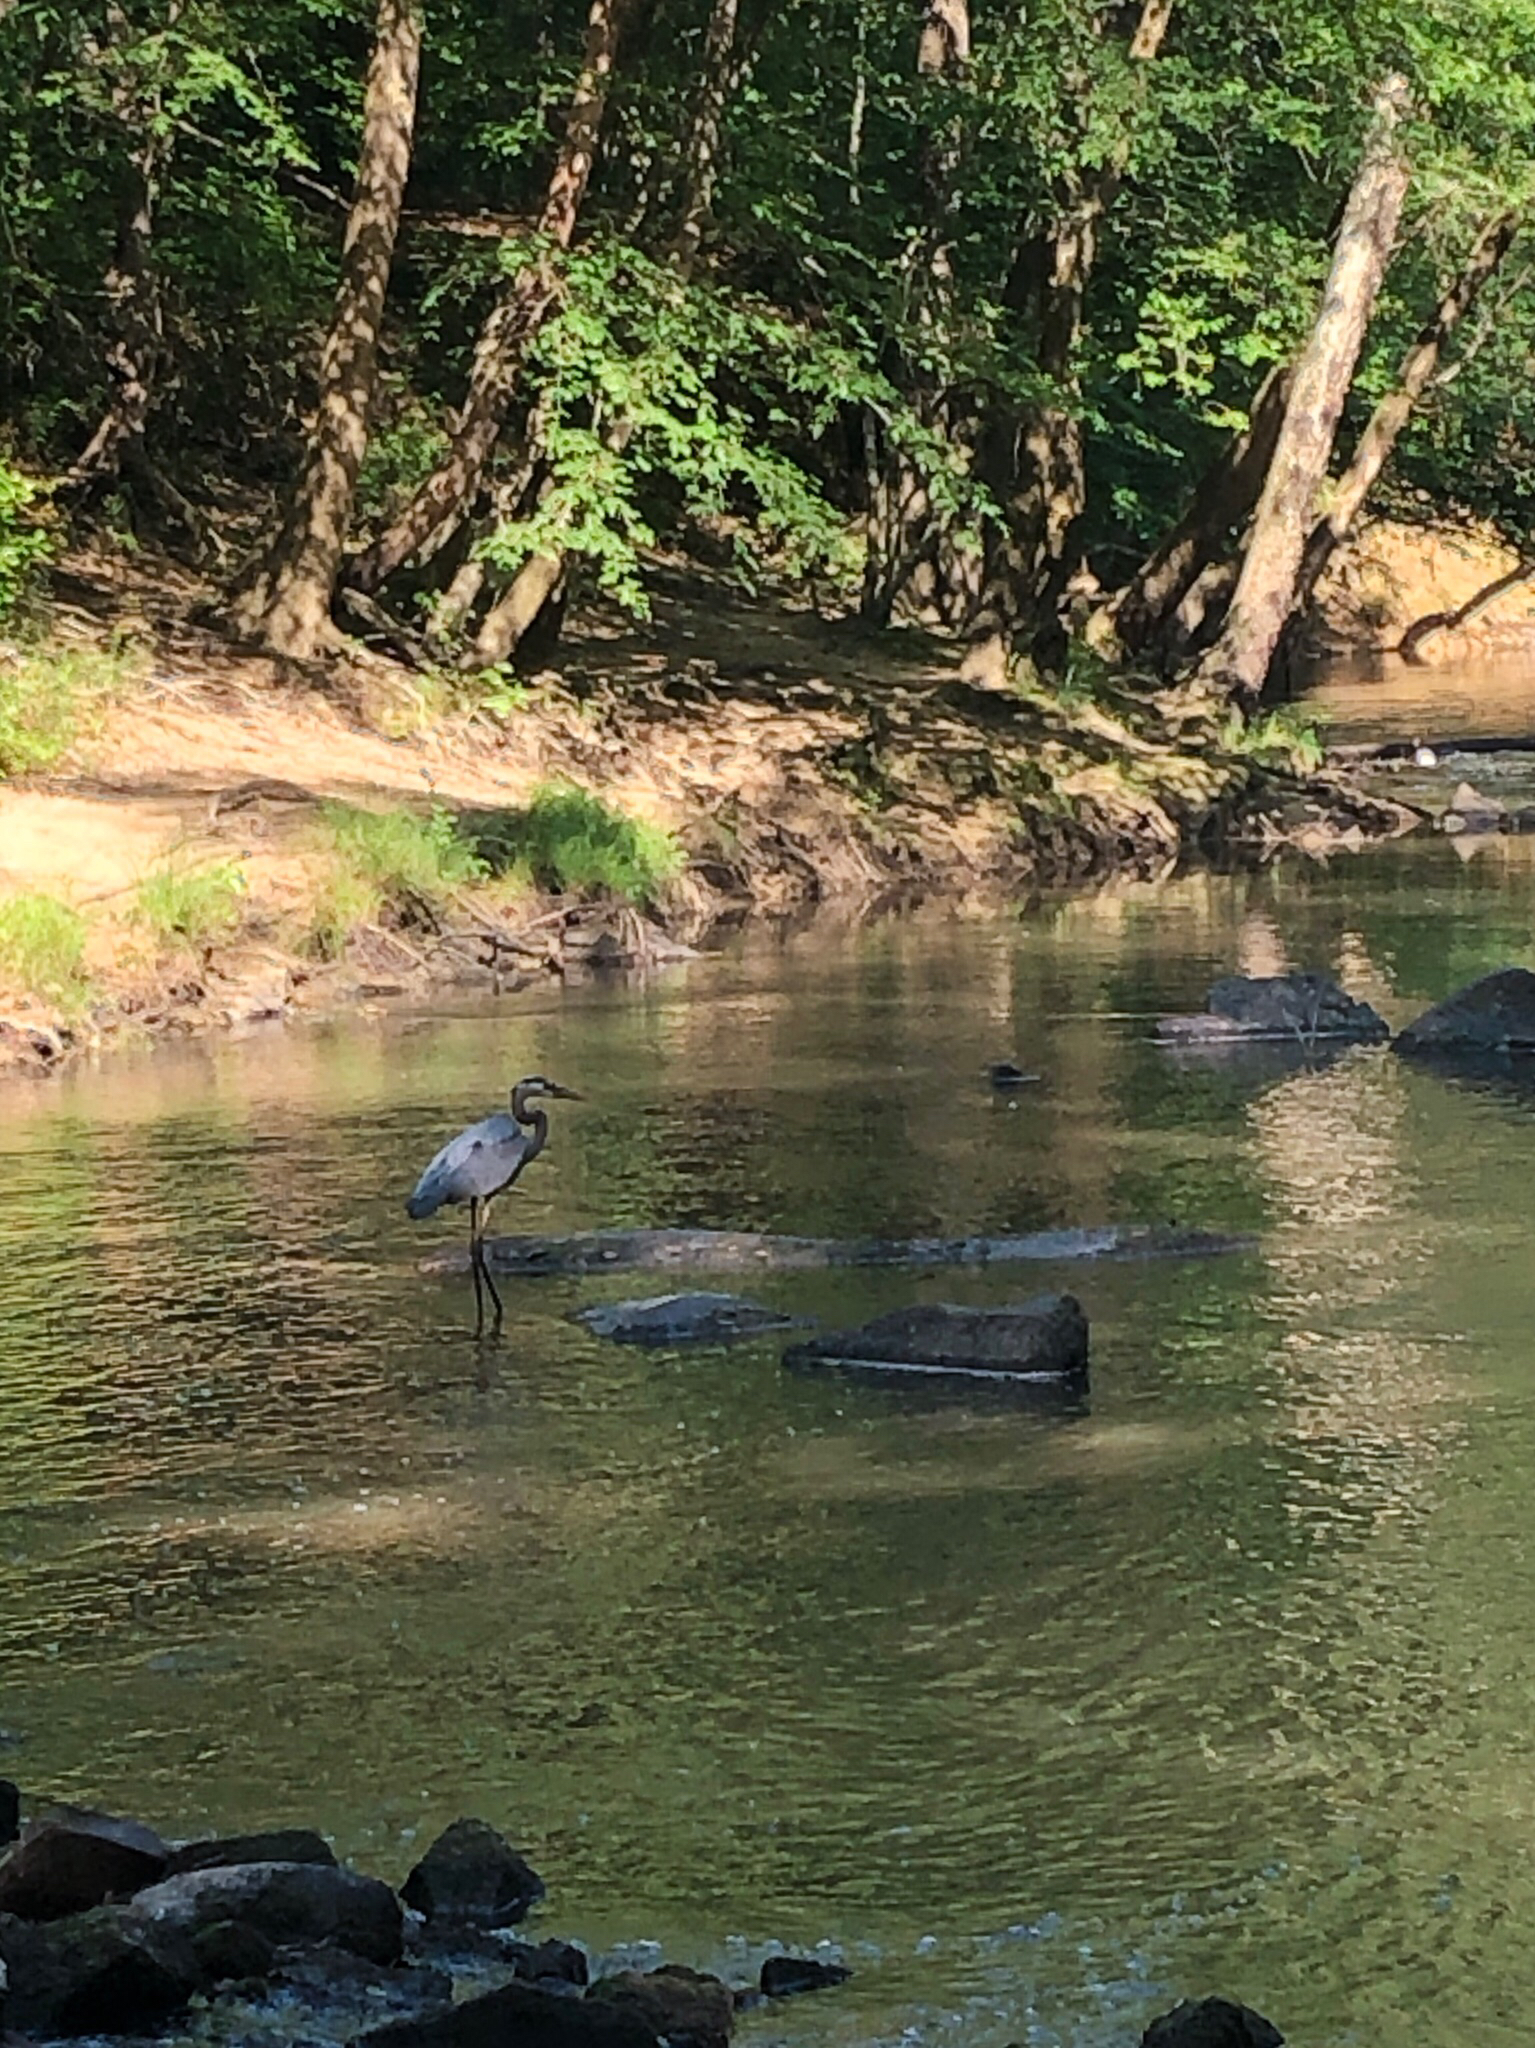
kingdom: Animalia
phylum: Chordata
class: Aves
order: Pelecaniformes
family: Ardeidae
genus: Ardea
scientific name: Ardea herodias
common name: Great blue heron
